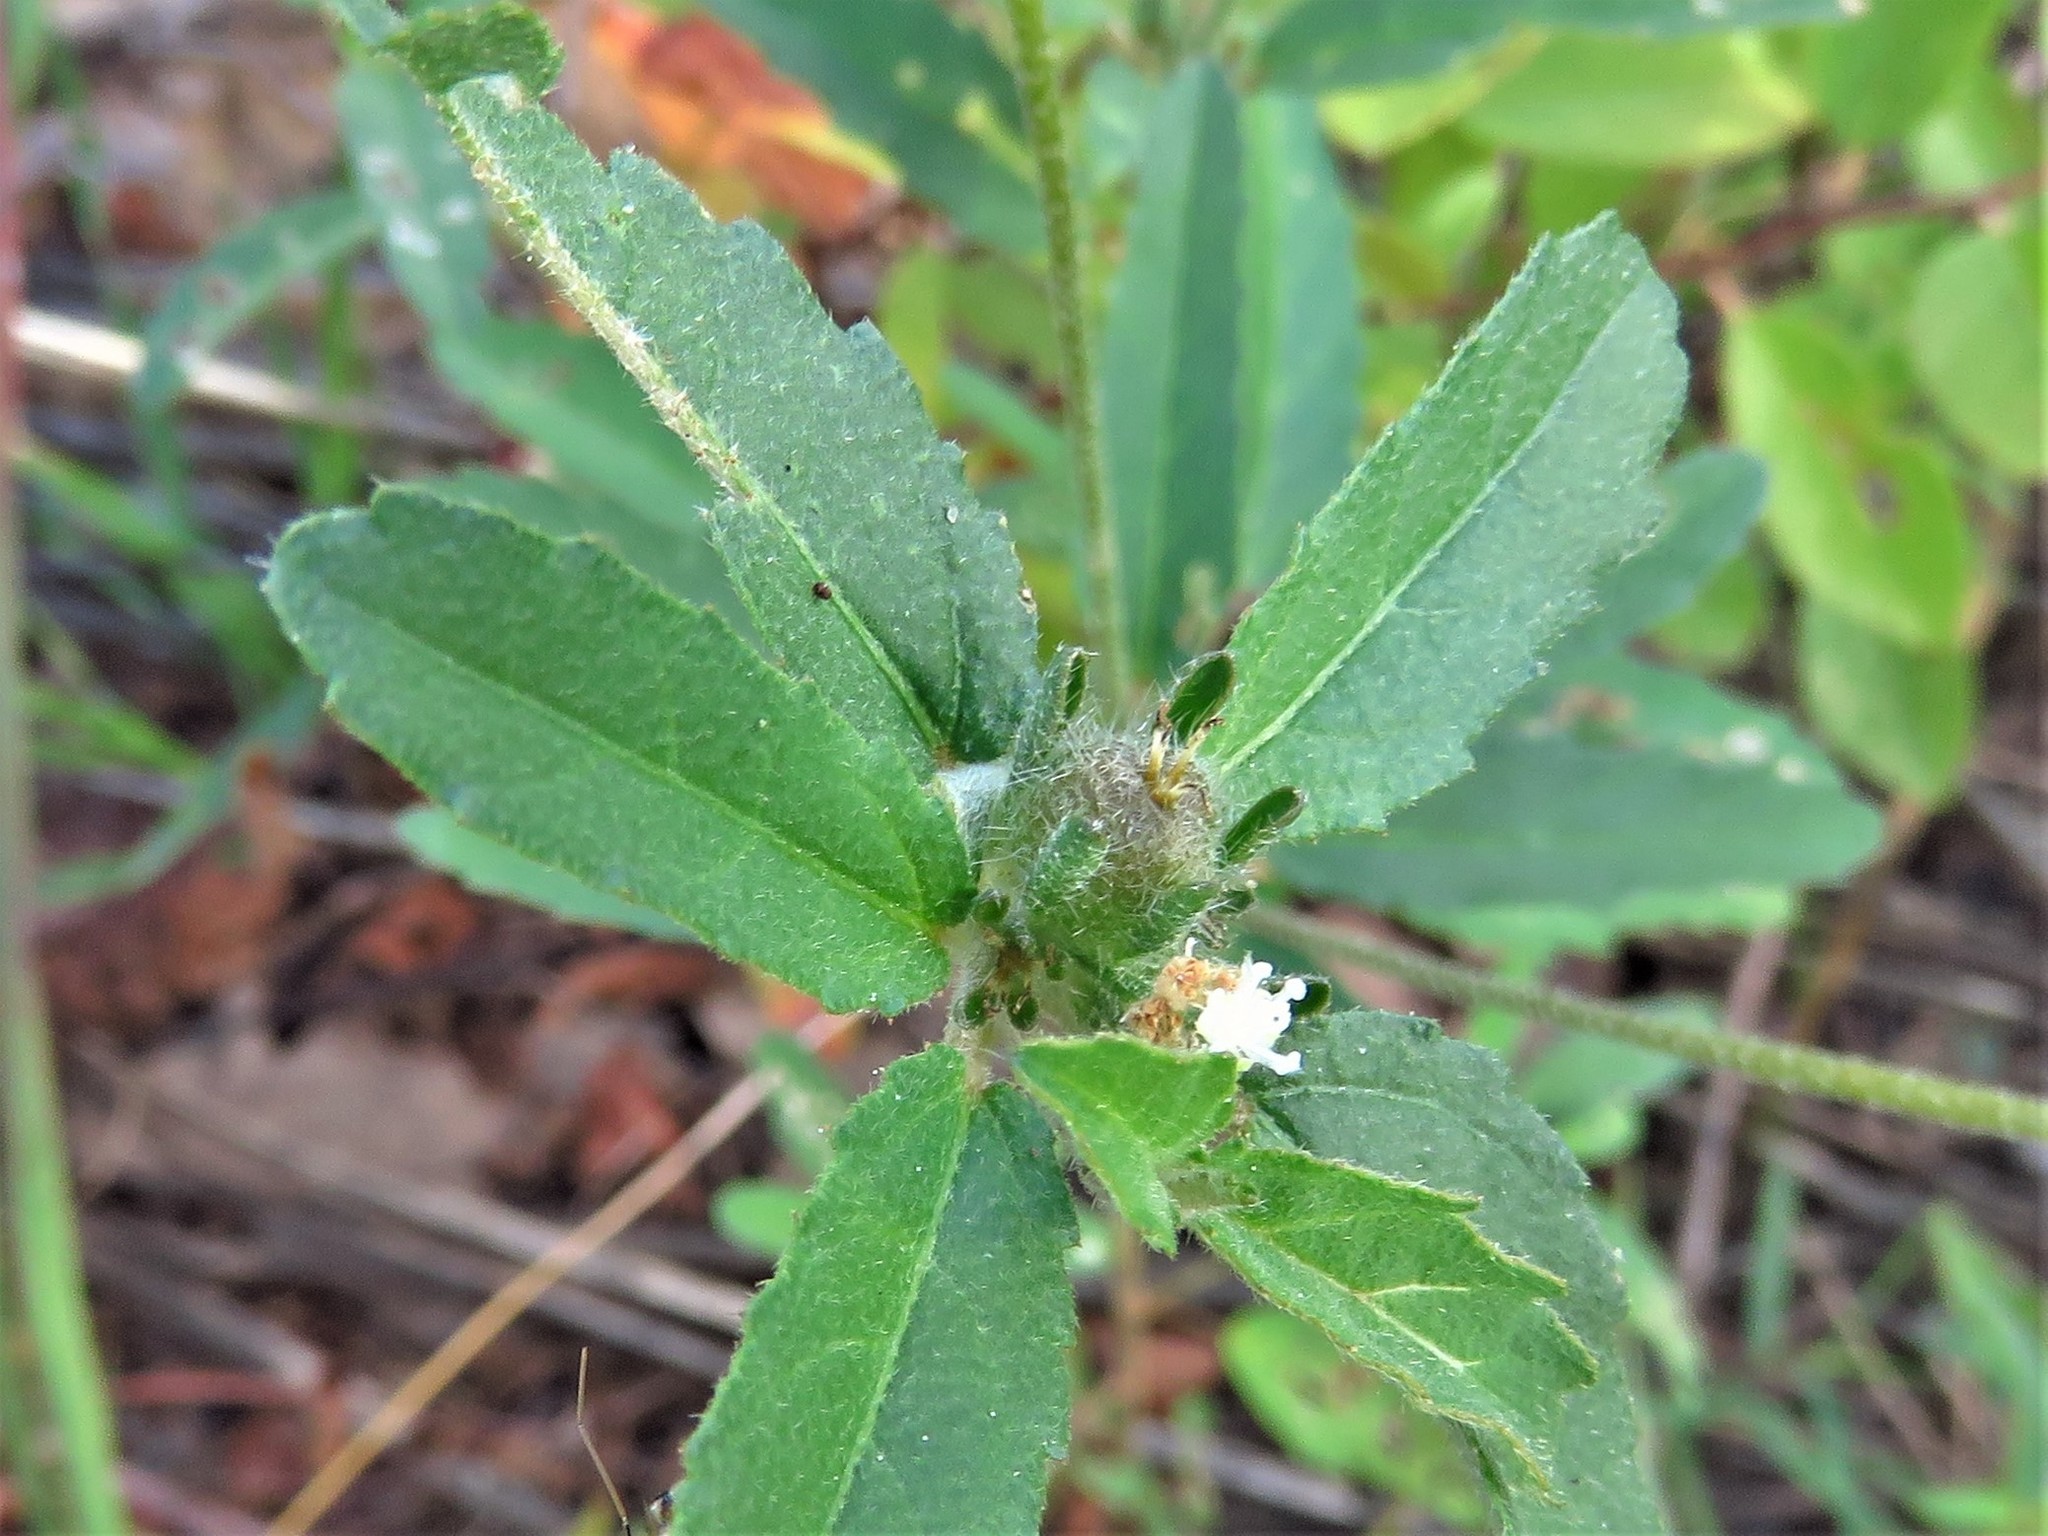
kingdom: Plantae
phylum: Tracheophyta
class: Magnoliopsida
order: Malpighiales
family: Euphorbiaceae
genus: Croton
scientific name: Croton glandulosus
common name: Tropic croton
